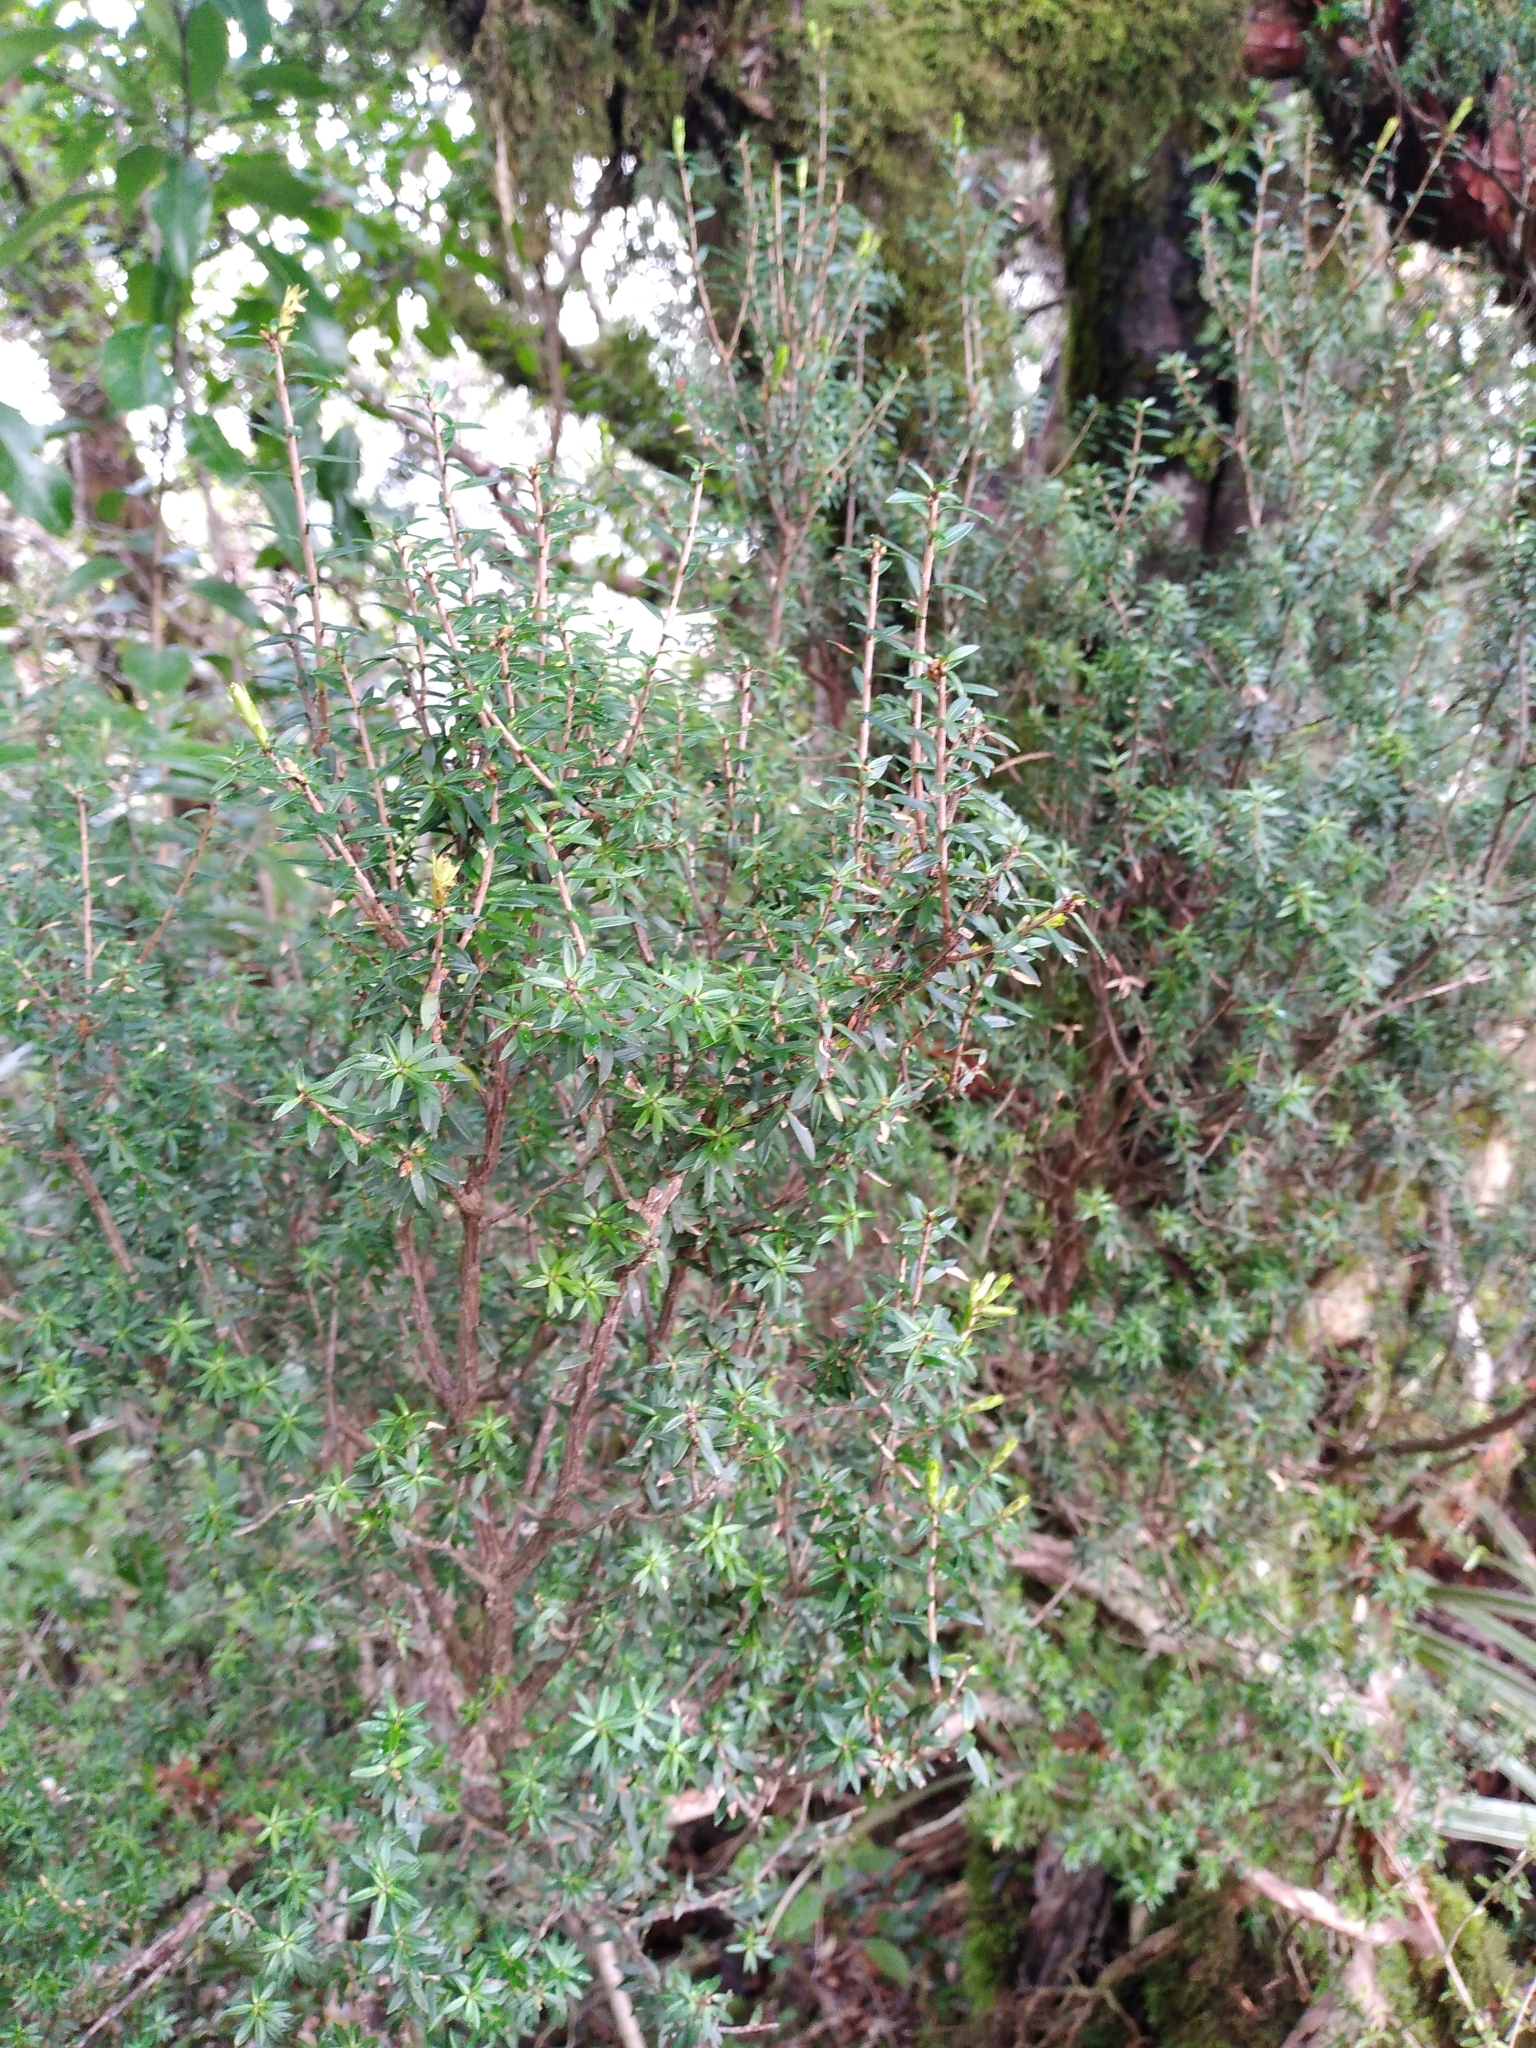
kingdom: Plantae
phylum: Tracheophyta
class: Magnoliopsida
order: Ericales
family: Ericaceae
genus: Archeria
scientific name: Archeria traversii
